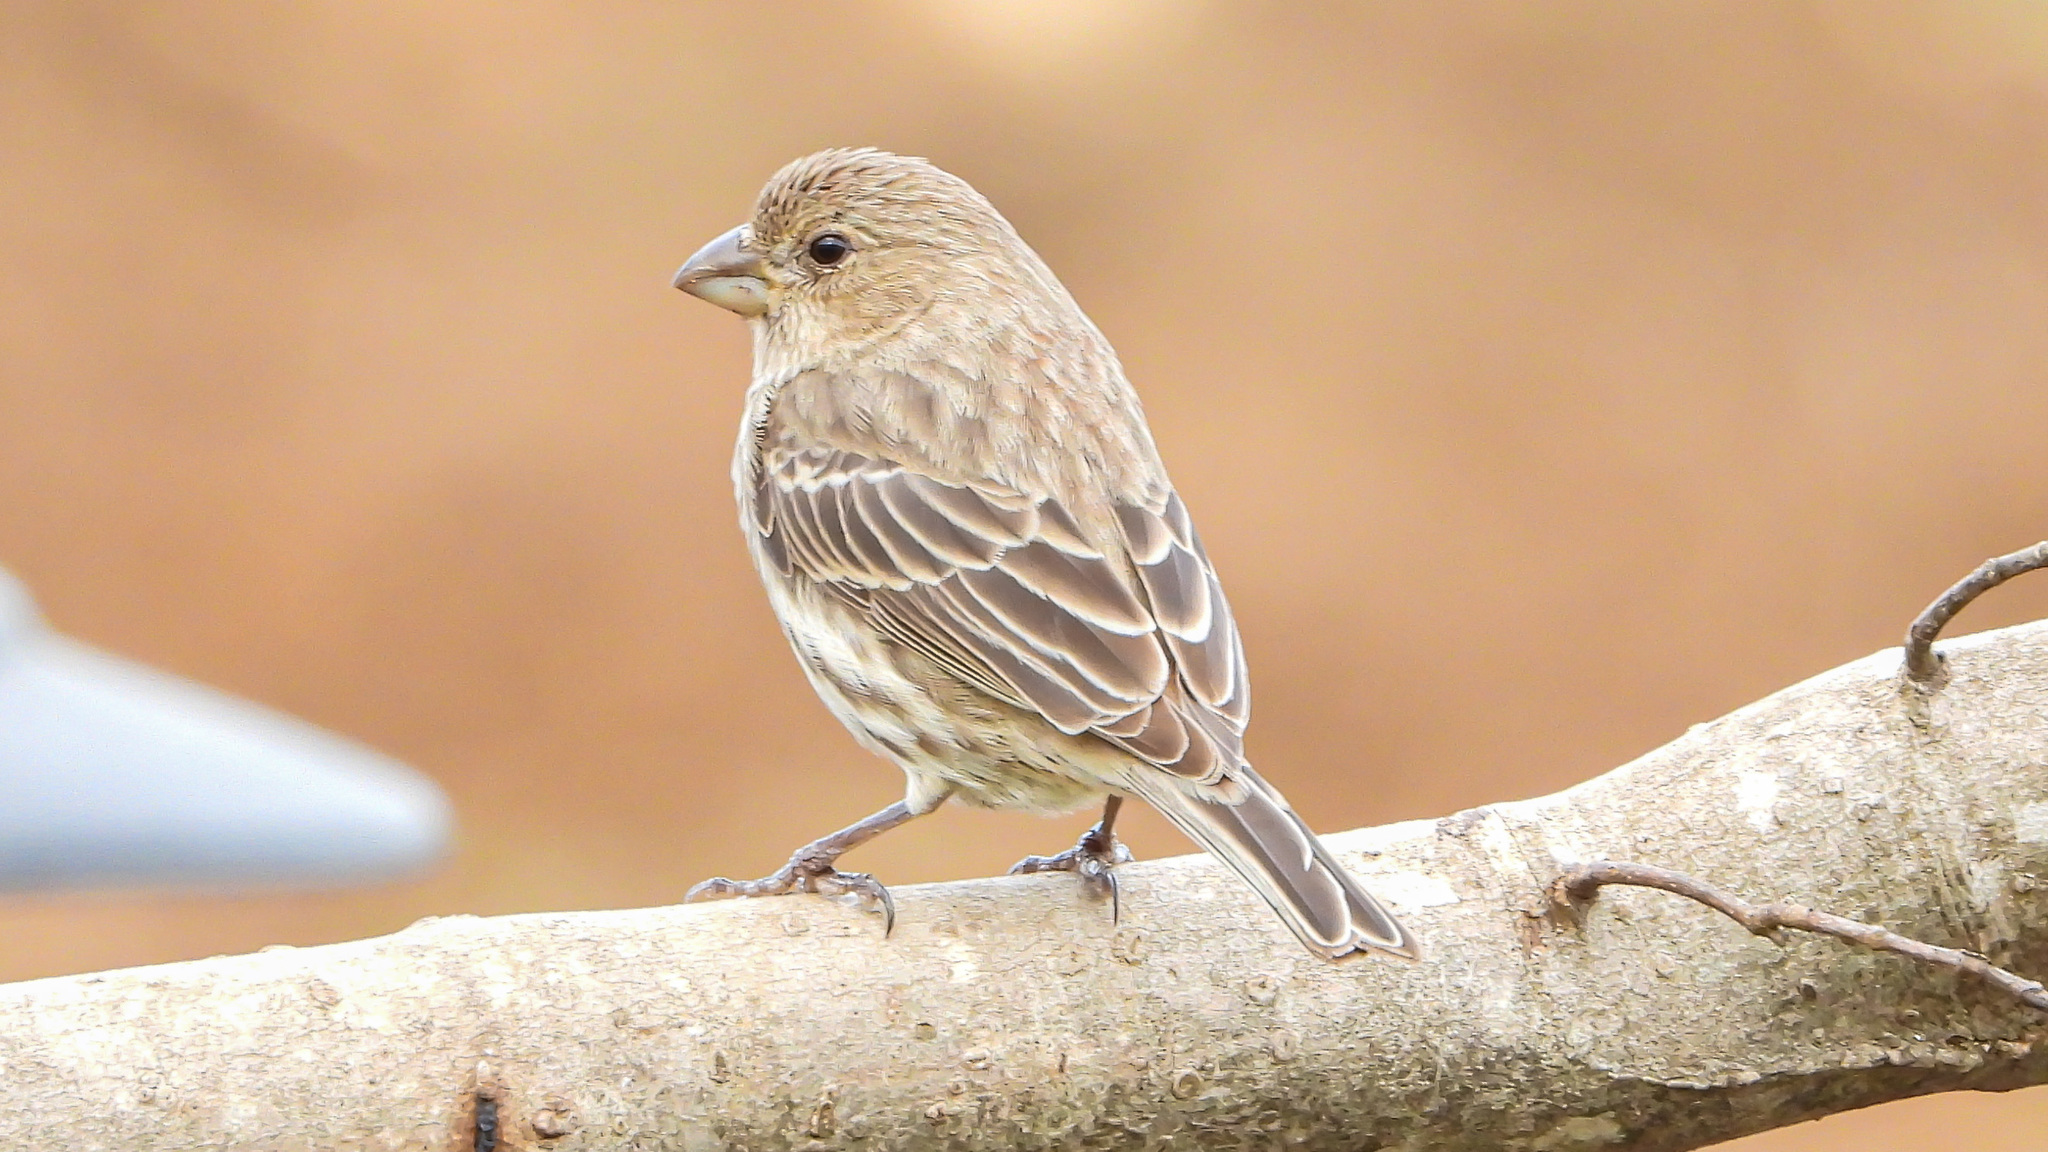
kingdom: Animalia
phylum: Chordata
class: Aves
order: Passeriformes
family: Fringillidae
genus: Haemorhous
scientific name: Haemorhous mexicanus
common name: House finch
